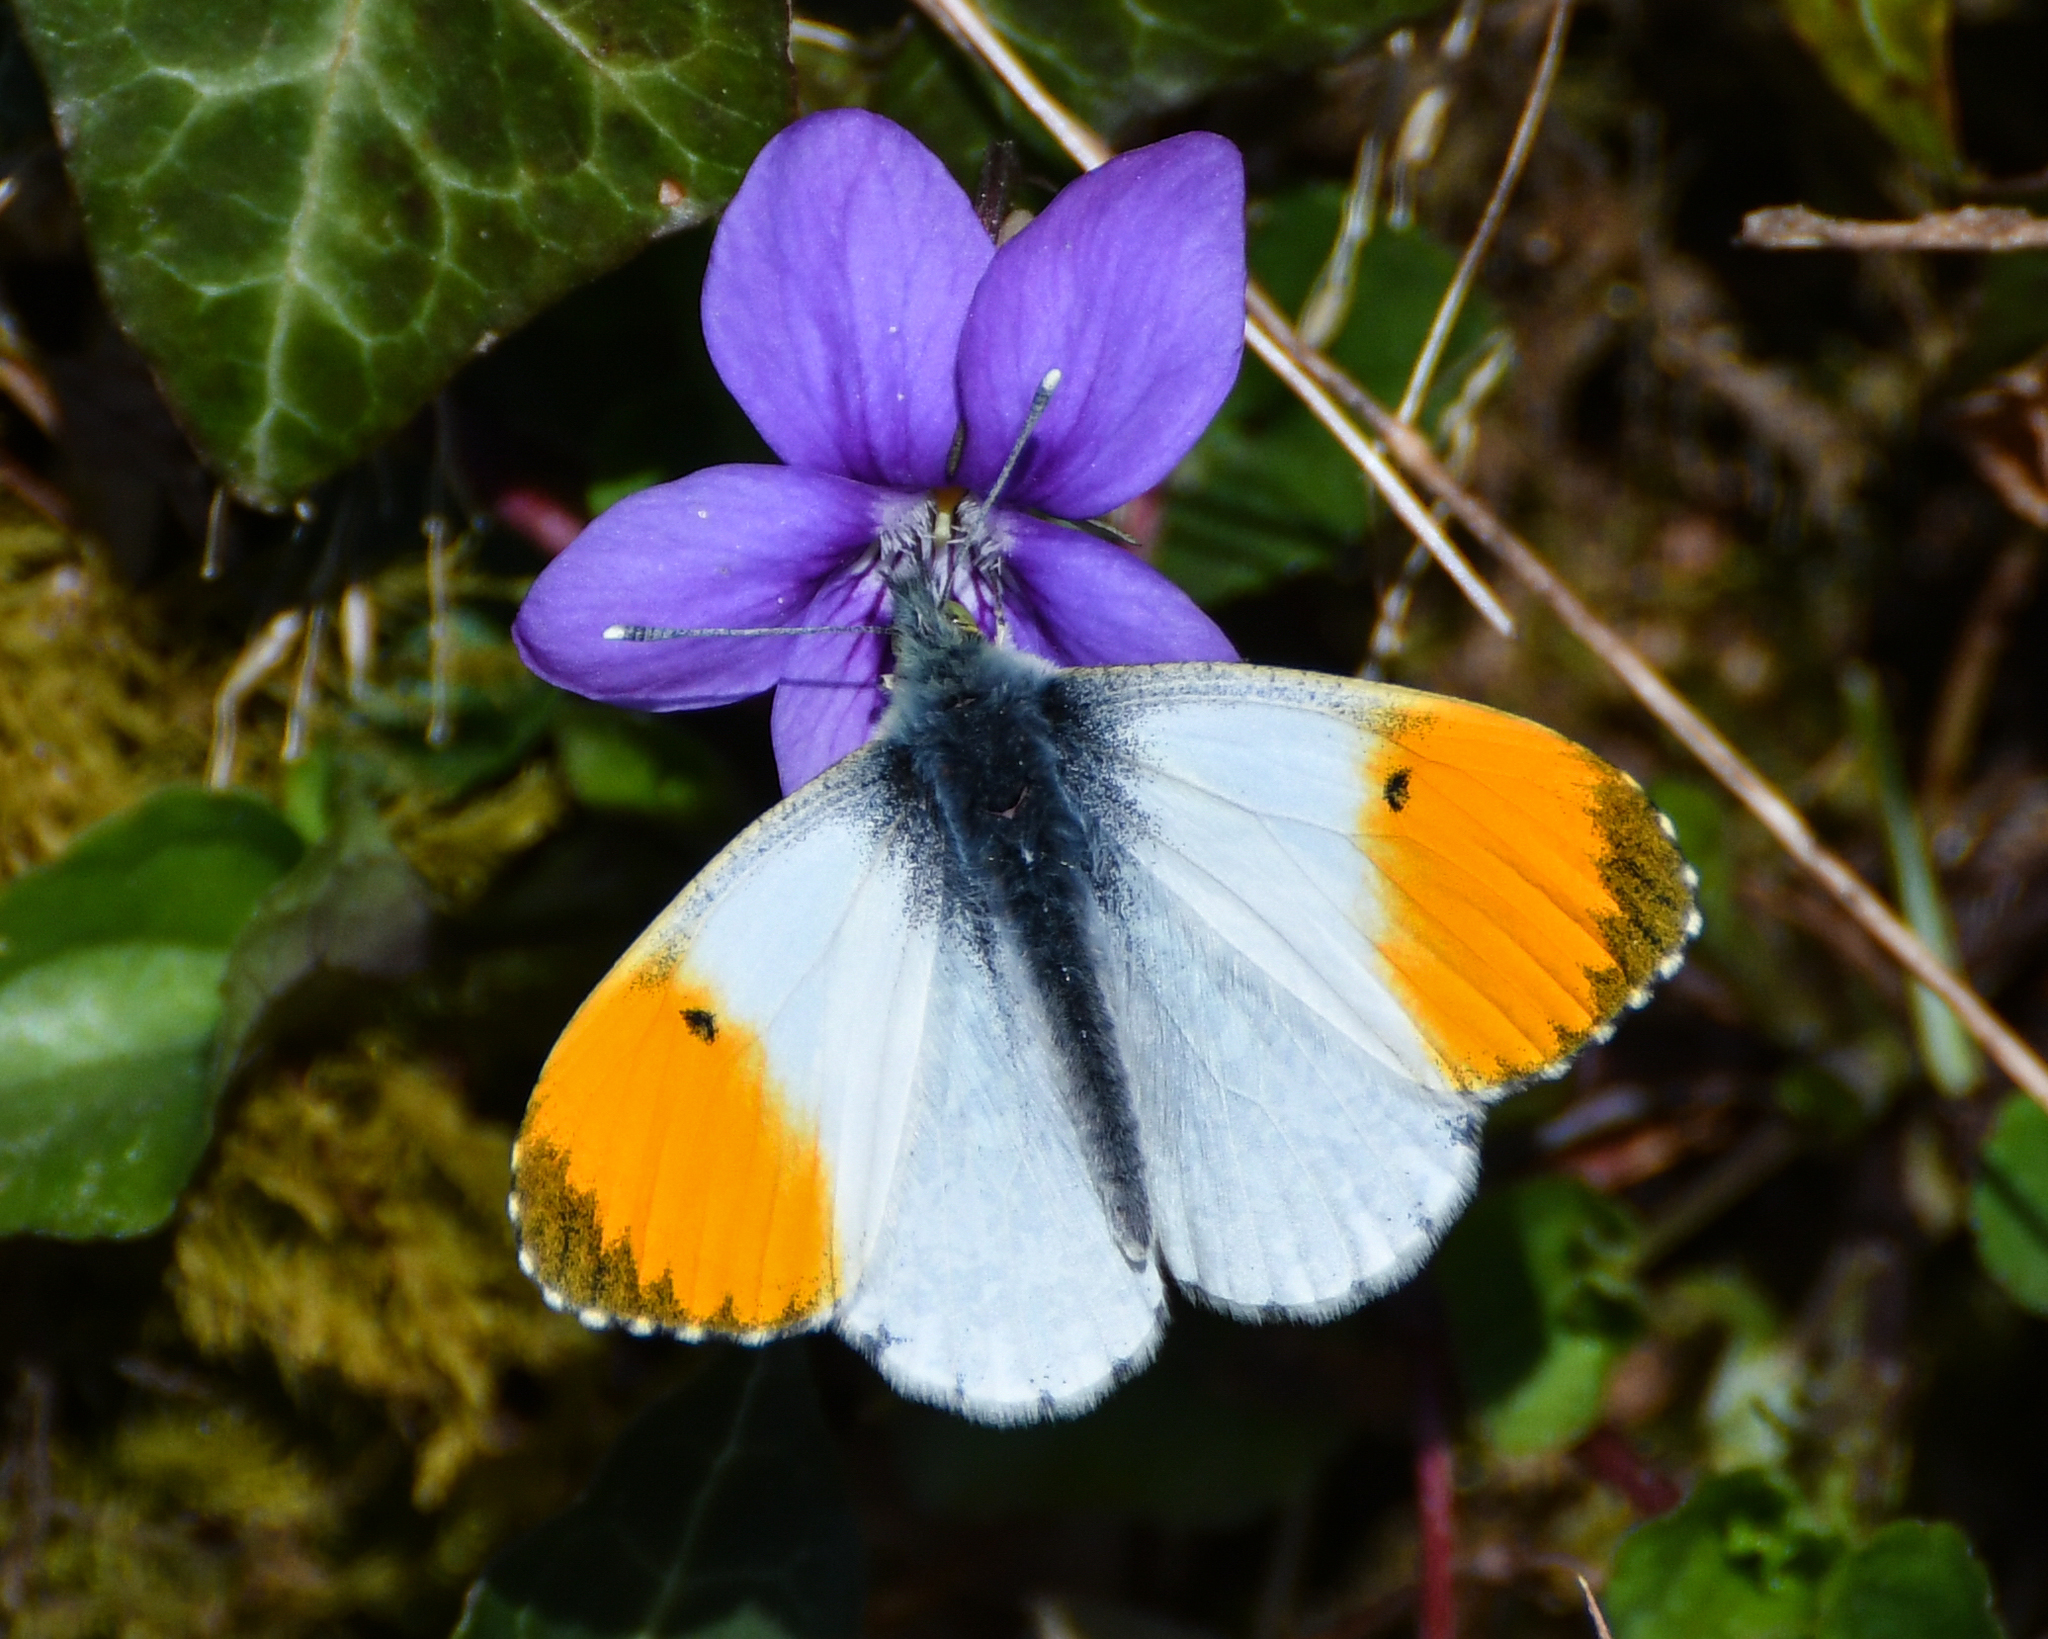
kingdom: Animalia
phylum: Arthropoda
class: Insecta
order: Lepidoptera
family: Pieridae
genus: Anthocharis
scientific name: Anthocharis cardamines
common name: Orange-tip
